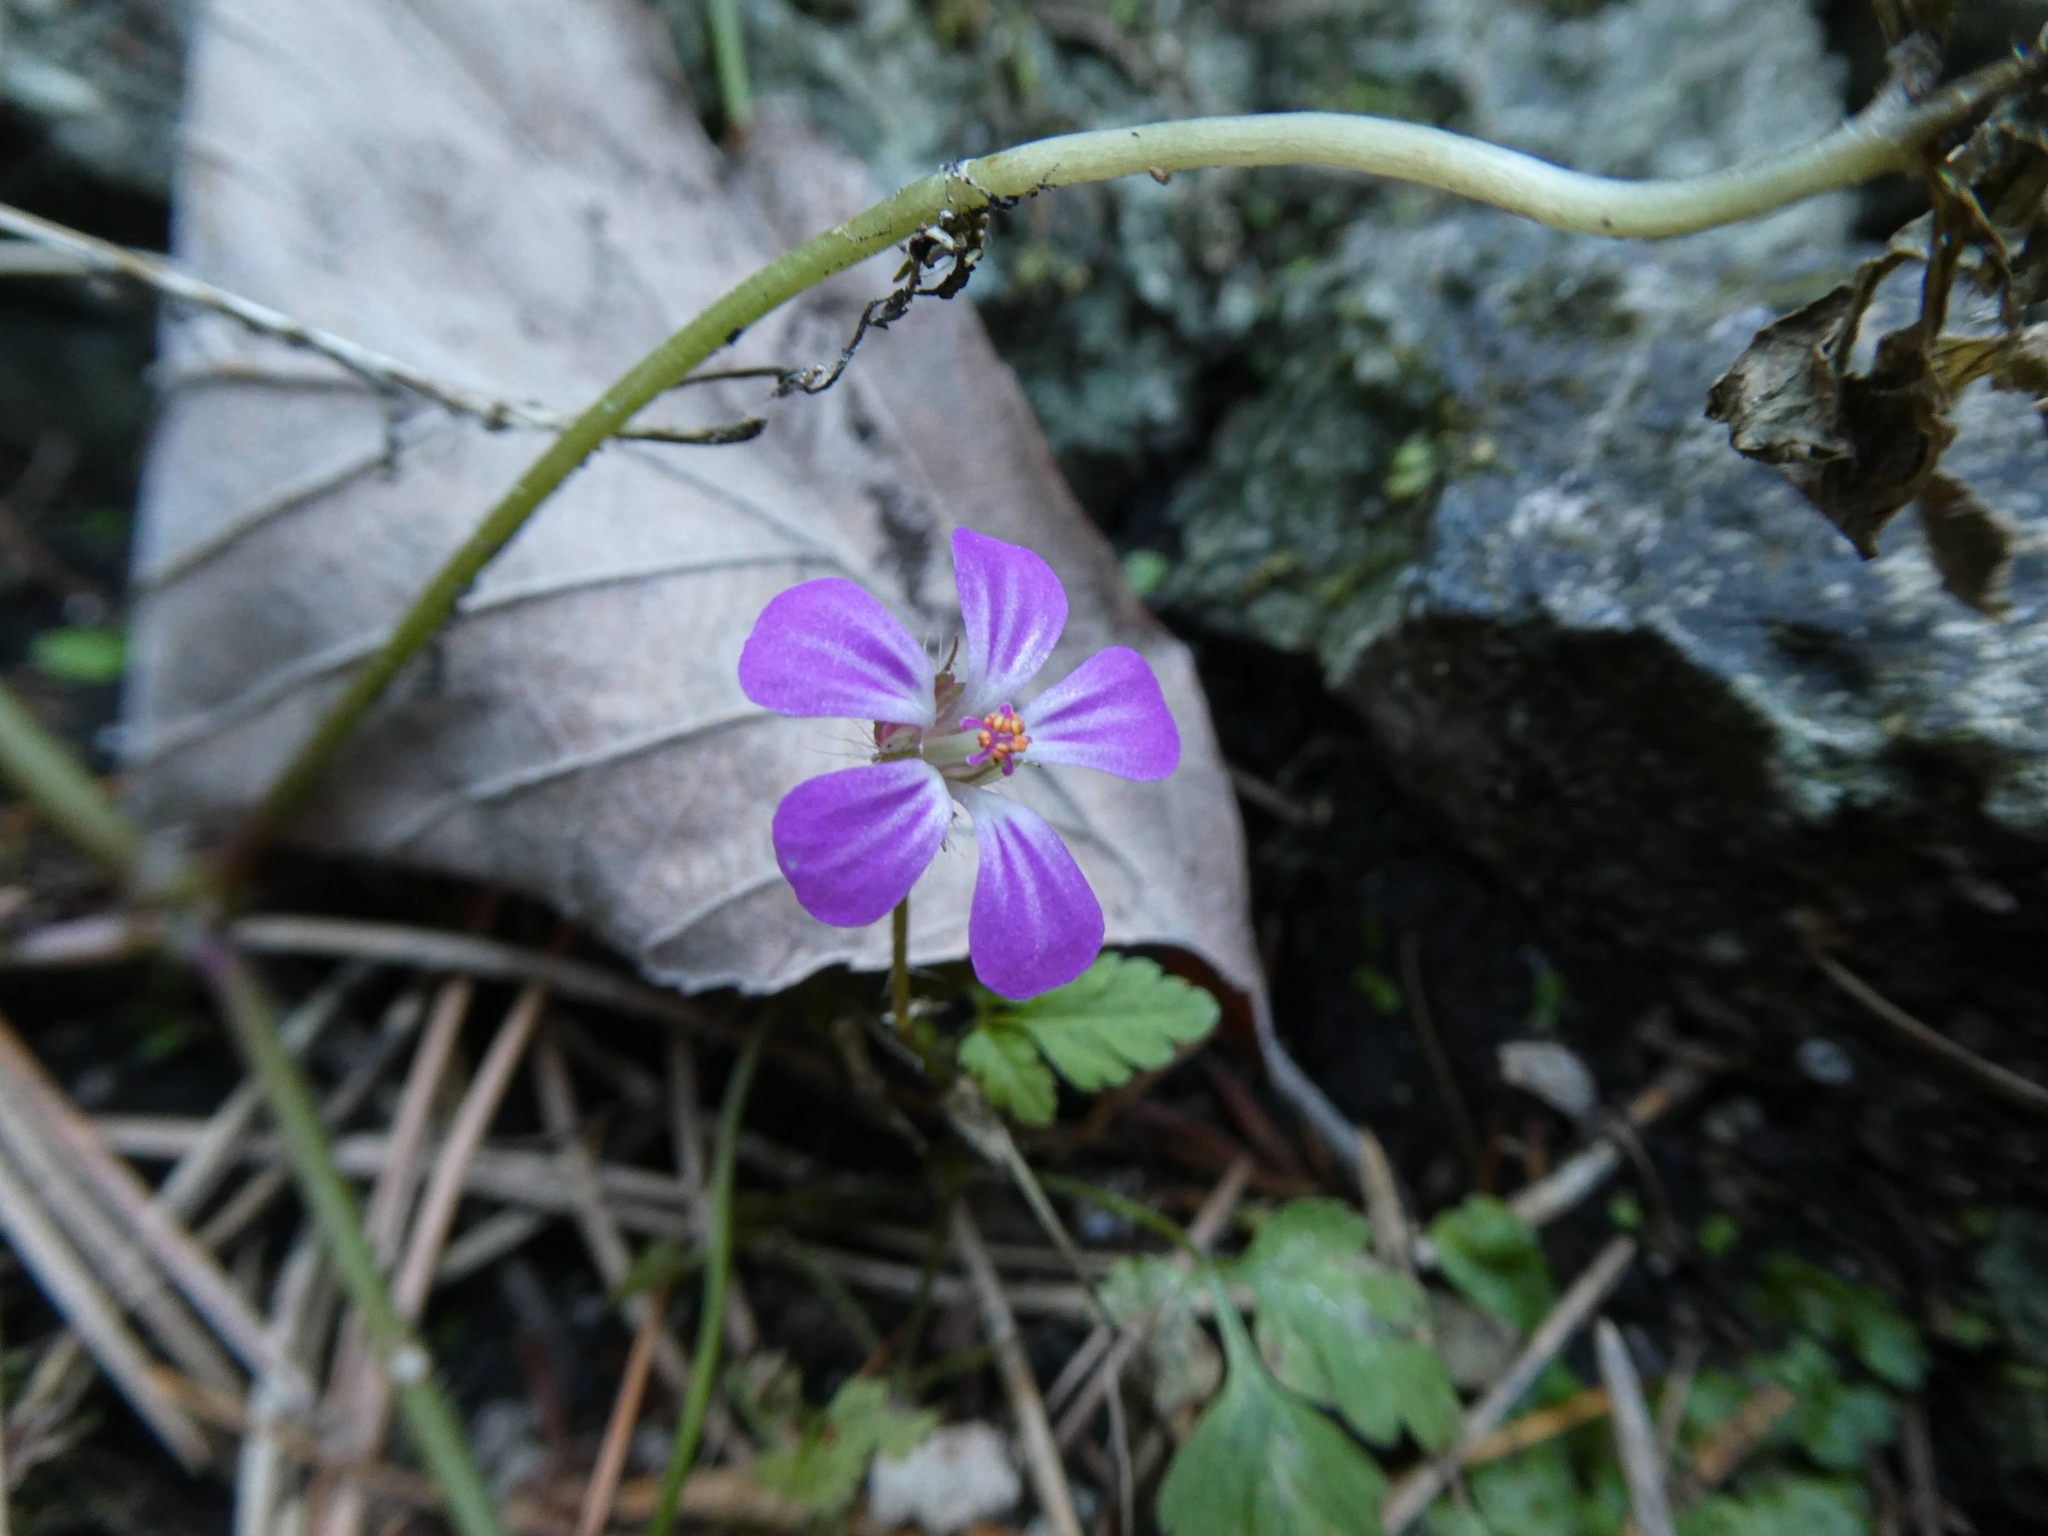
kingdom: Plantae
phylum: Tracheophyta
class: Magnoliopsida
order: Geraniales
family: Geraniaceae
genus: Geranium
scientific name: Geranium robertianum
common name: Herb-robert
